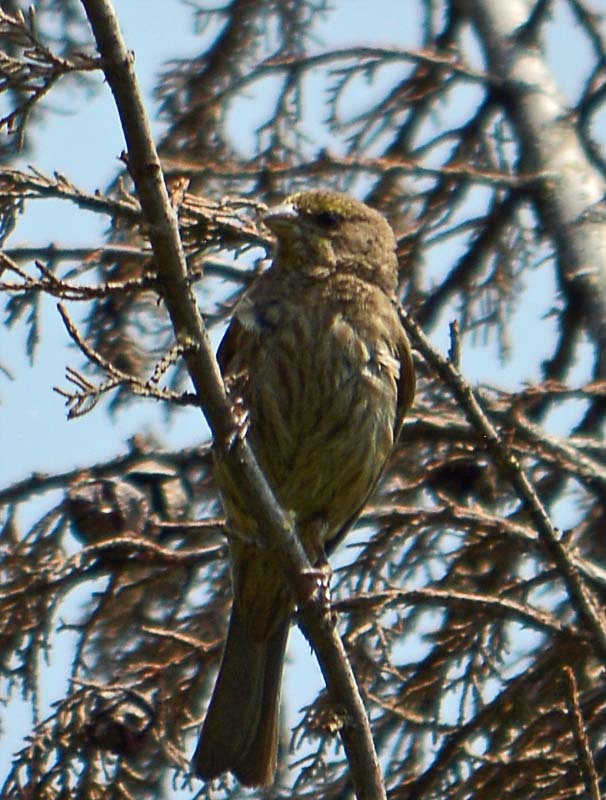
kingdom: Animalia
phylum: Chordata
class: Aves
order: Passeriformes
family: Fringillidae
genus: Haemorhous
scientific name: Haemorhous mexicanus
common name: House finch
